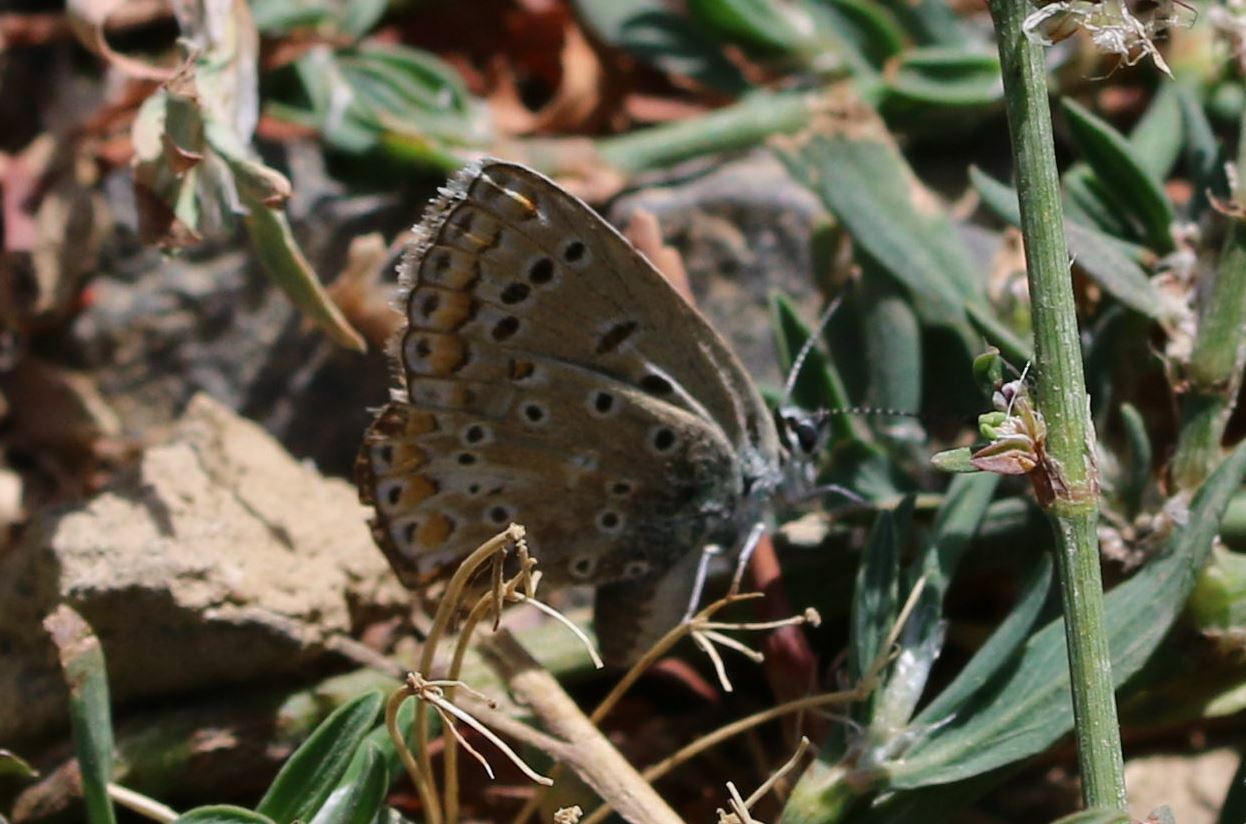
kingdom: Animalia
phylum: Arthropoda
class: Insecta
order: Lepidoptera
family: Lycaenidae
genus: Polyommatus
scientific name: Polyommatus icarus
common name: Common blue
